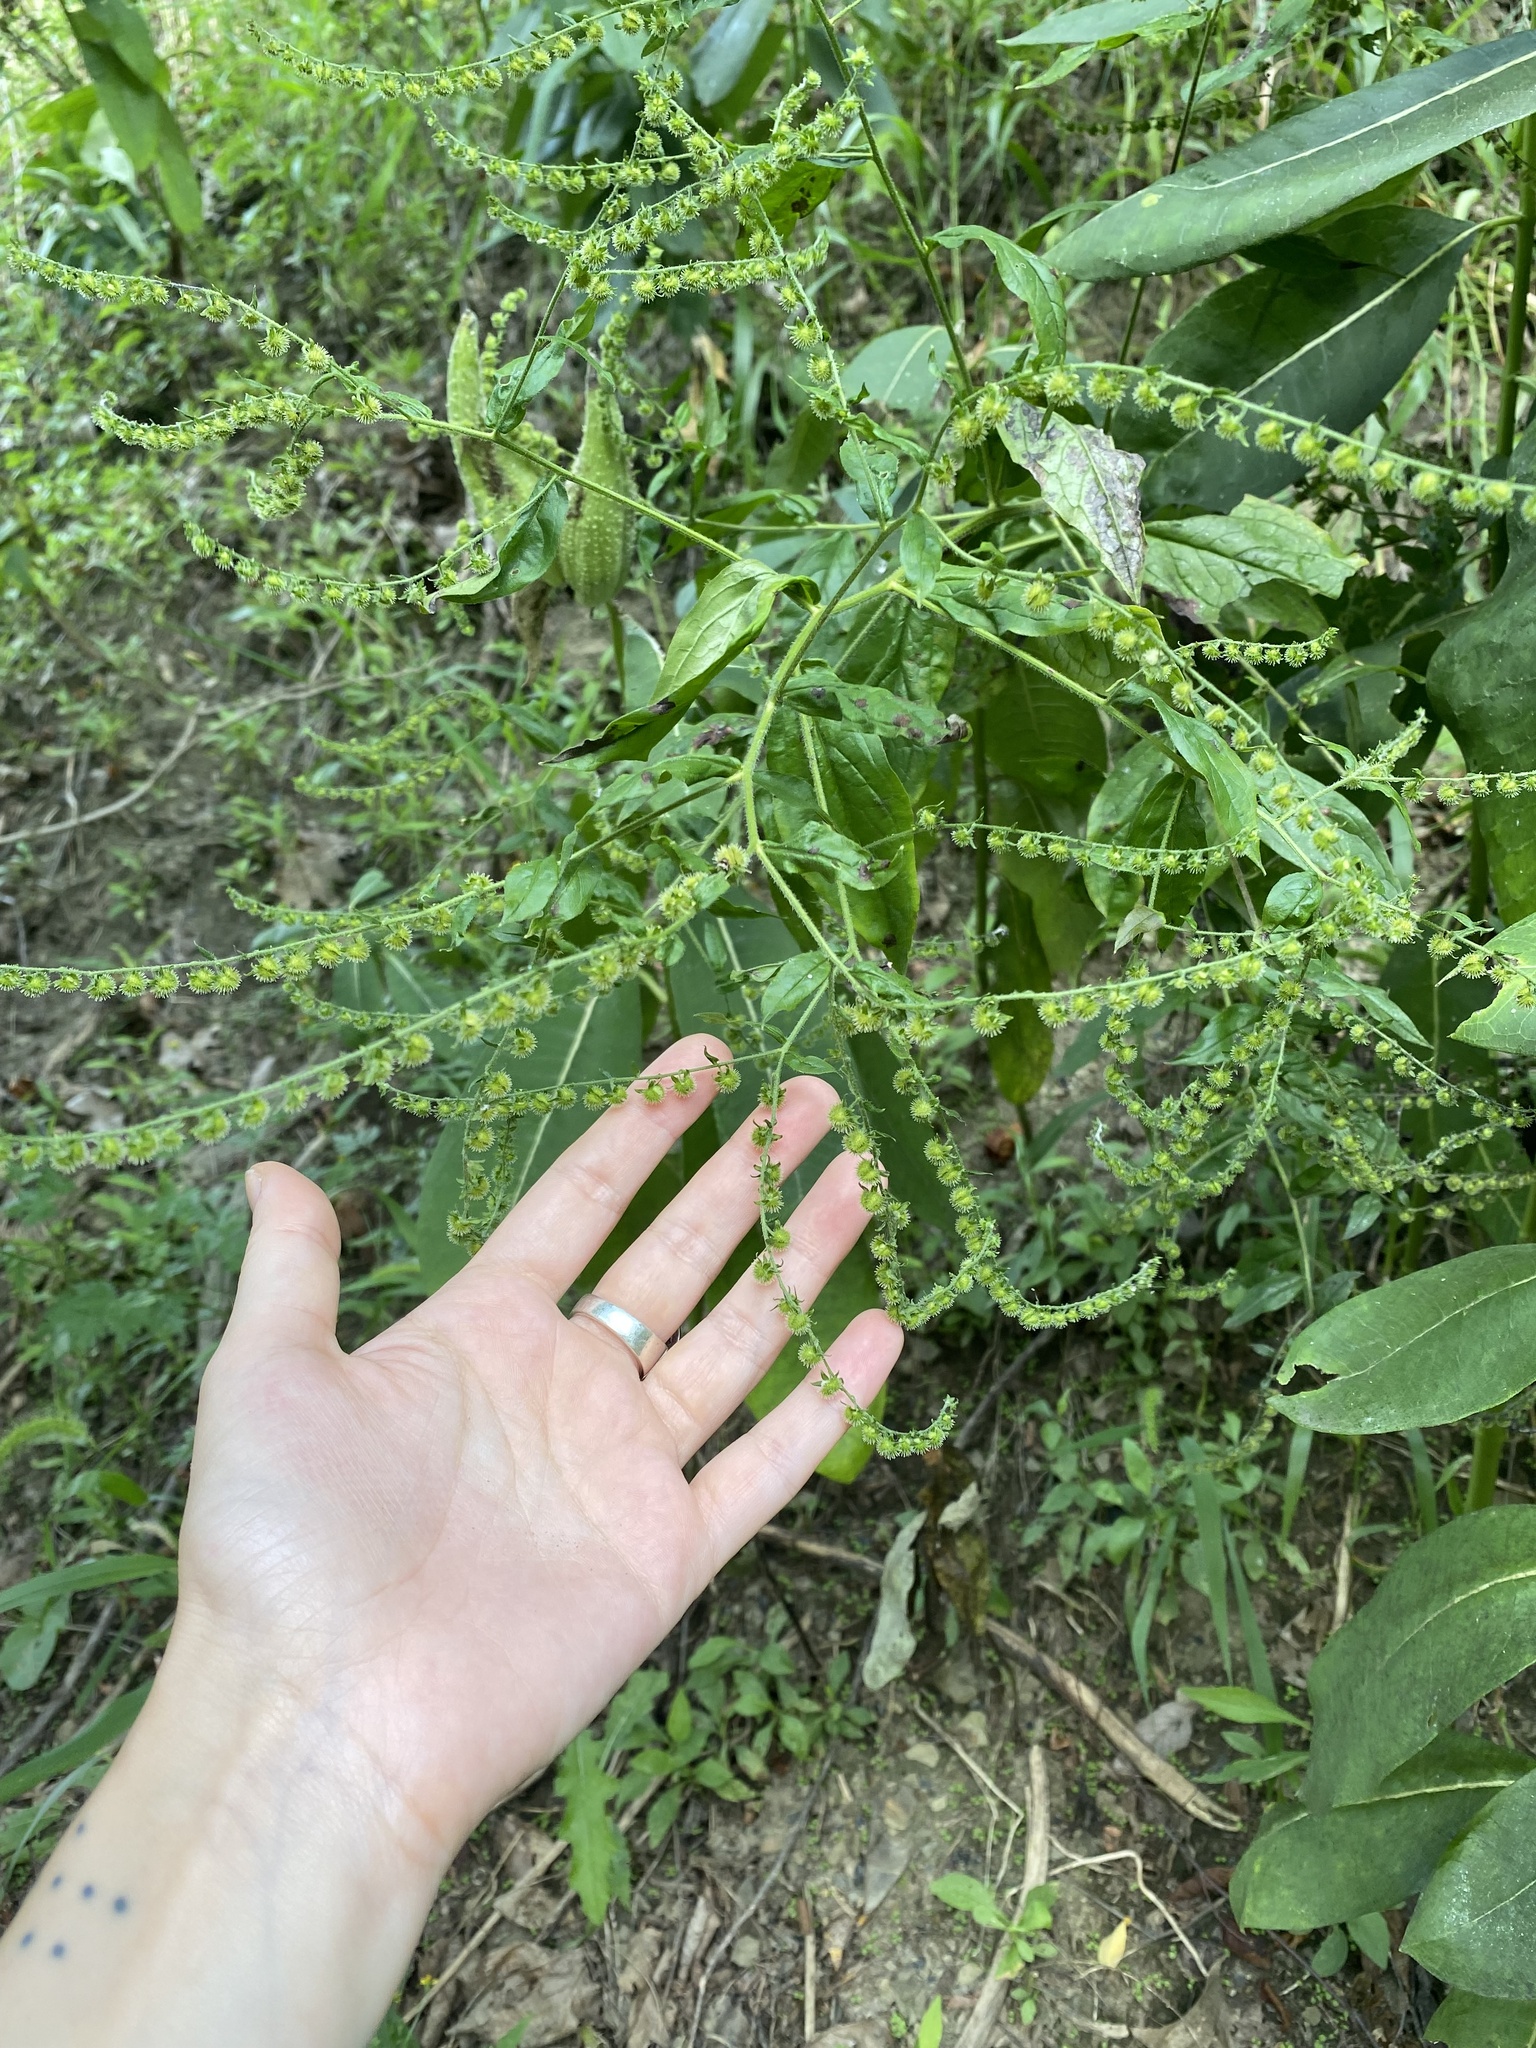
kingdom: Plantae
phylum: Tracheophyta
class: Magnoliopsida
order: Boraginales
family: Boraginaceae
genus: Hackelia
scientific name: Hackelia virginiana
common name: Beggar's-lice
